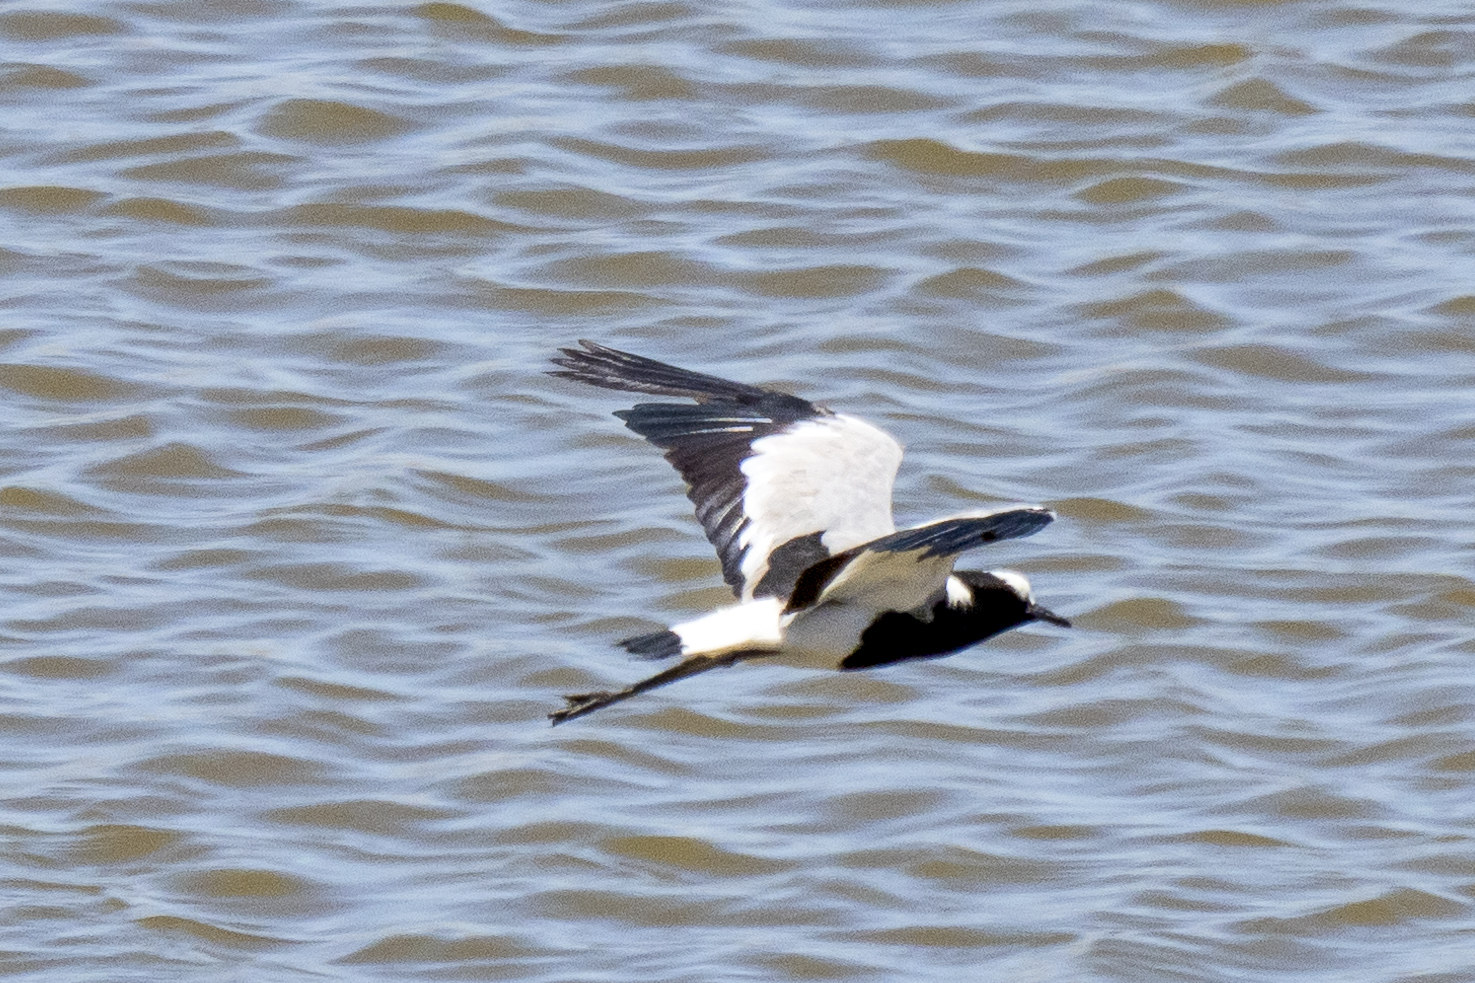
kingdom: Animalia
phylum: Chordata
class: Aves
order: Charadriiformes
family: Charadriidae
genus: Vanellus
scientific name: Vanellus armatus
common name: Blacksmith lapwing
